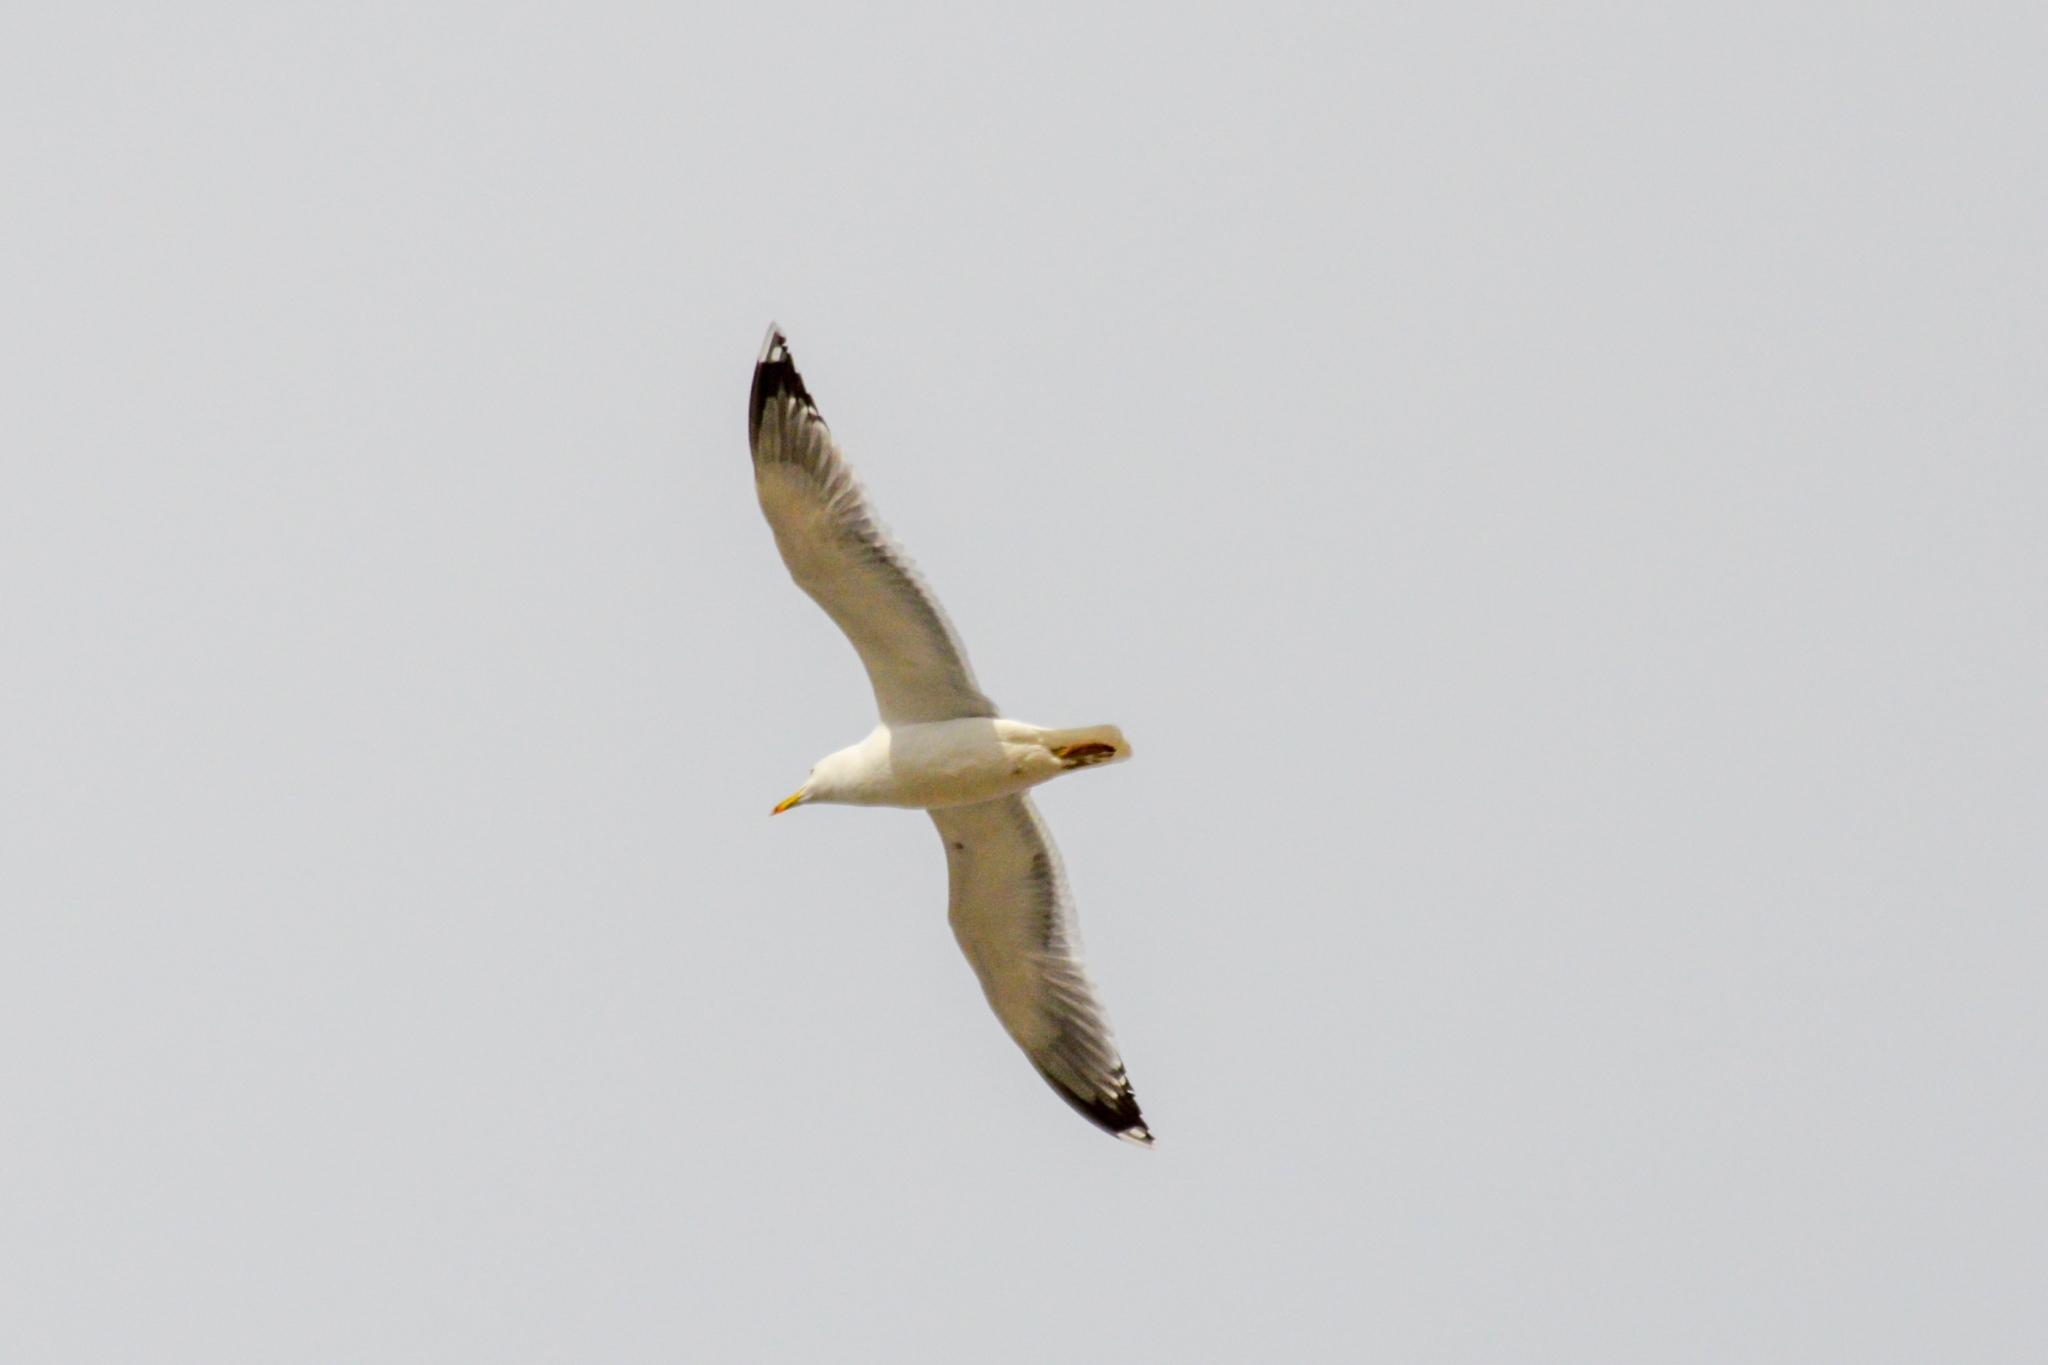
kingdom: Animalia
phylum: Chordata
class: Aves
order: Charadriiformes
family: Laridae
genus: Larus
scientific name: Larus cachinnans
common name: Caspian gull
